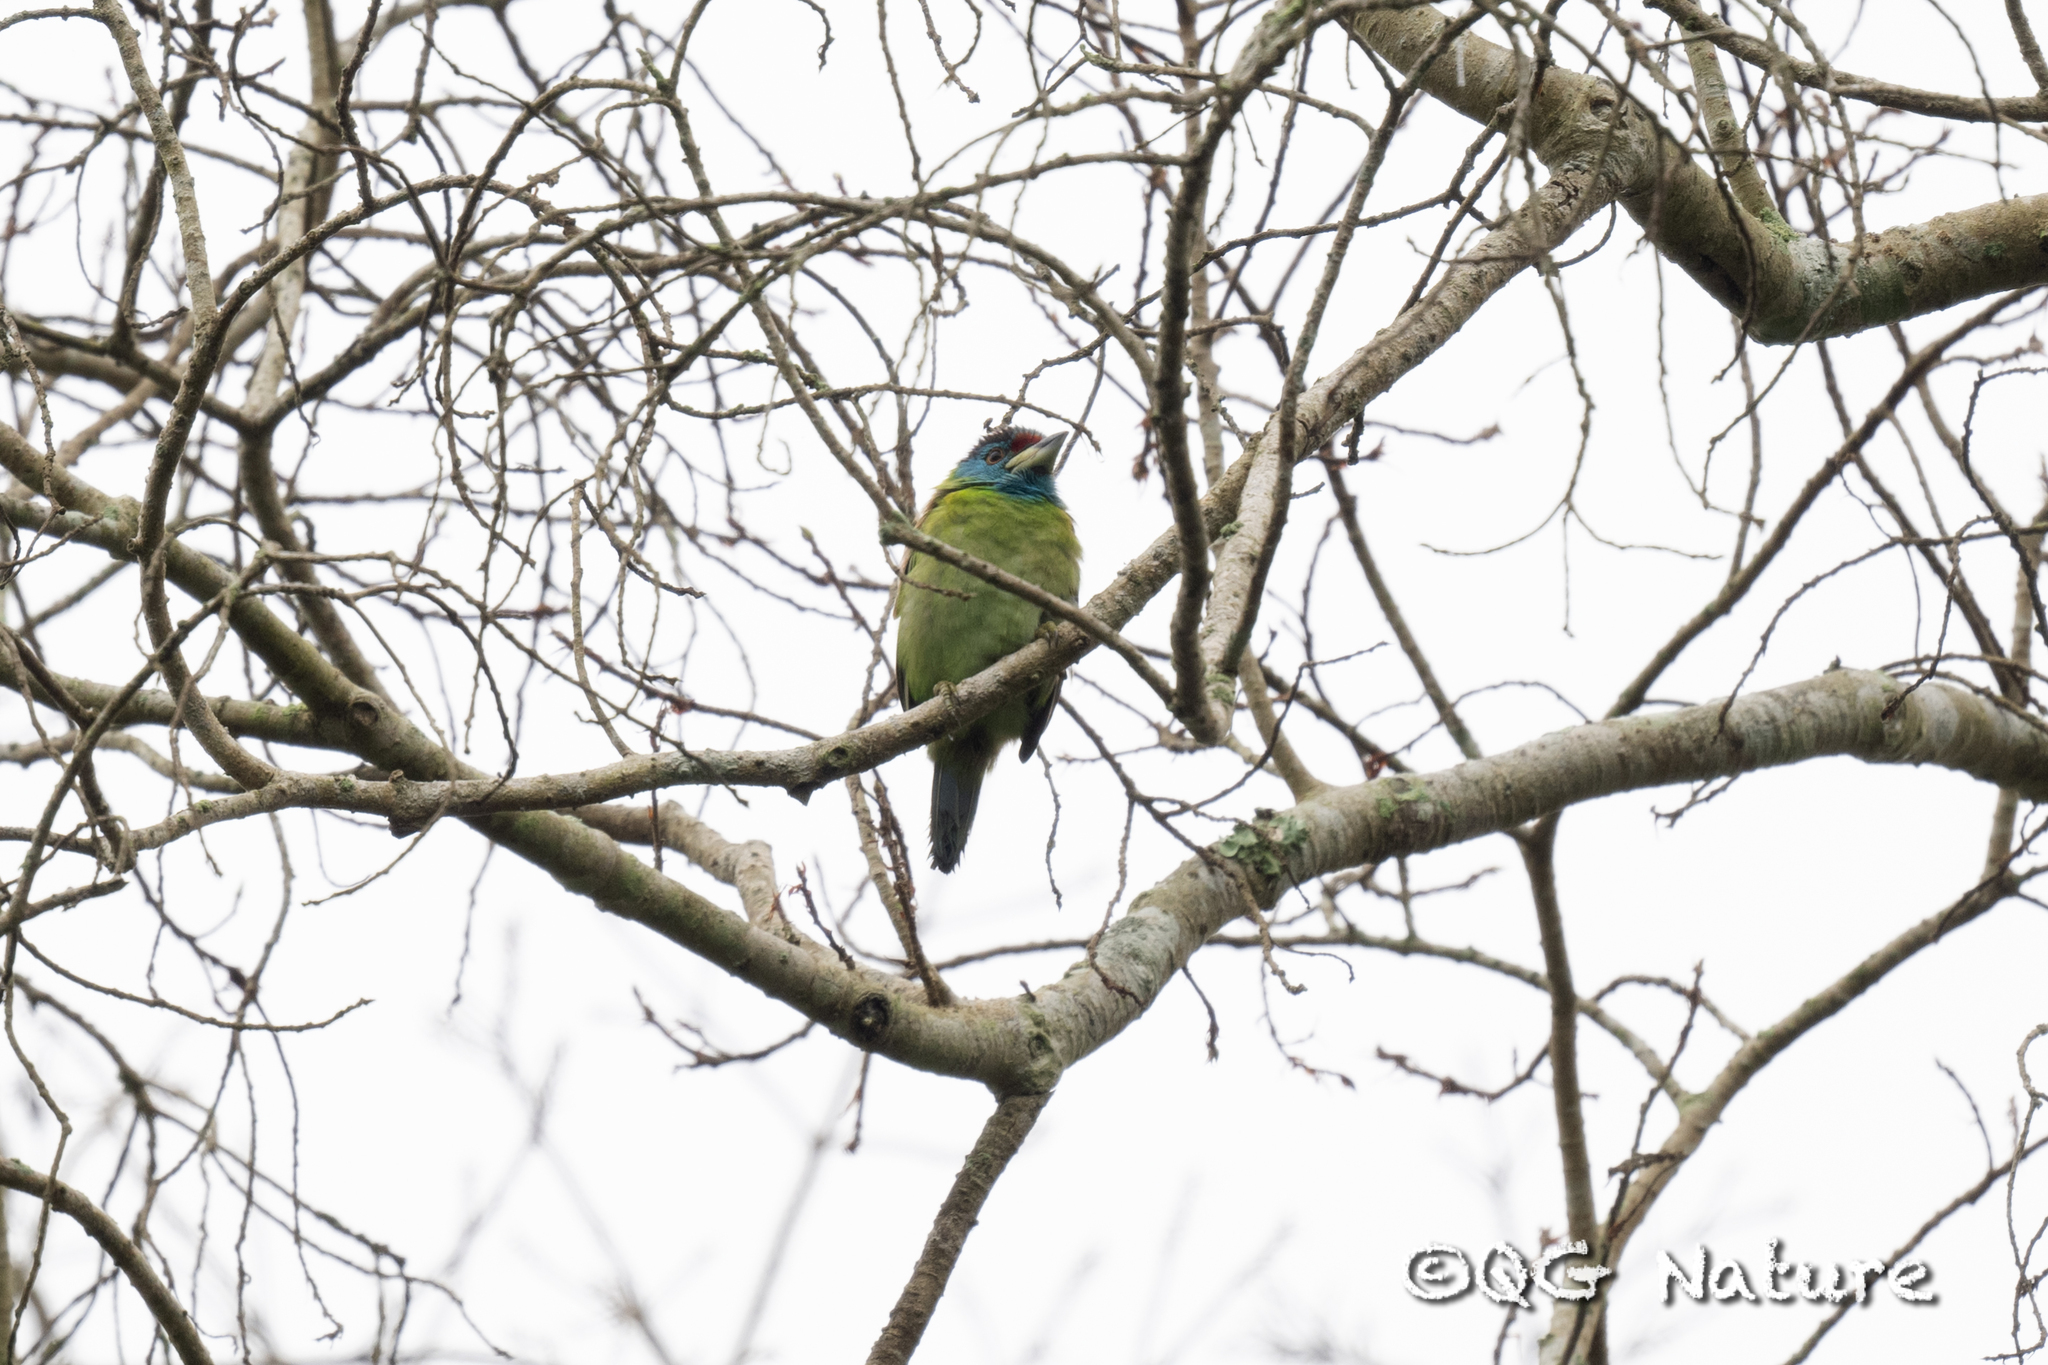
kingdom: Animalia
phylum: Chordata
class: Aves
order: Piciformes
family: Megalaimidae
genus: Psilopogon
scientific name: Psilopogon asiaticus
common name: Blue-throated barbet
